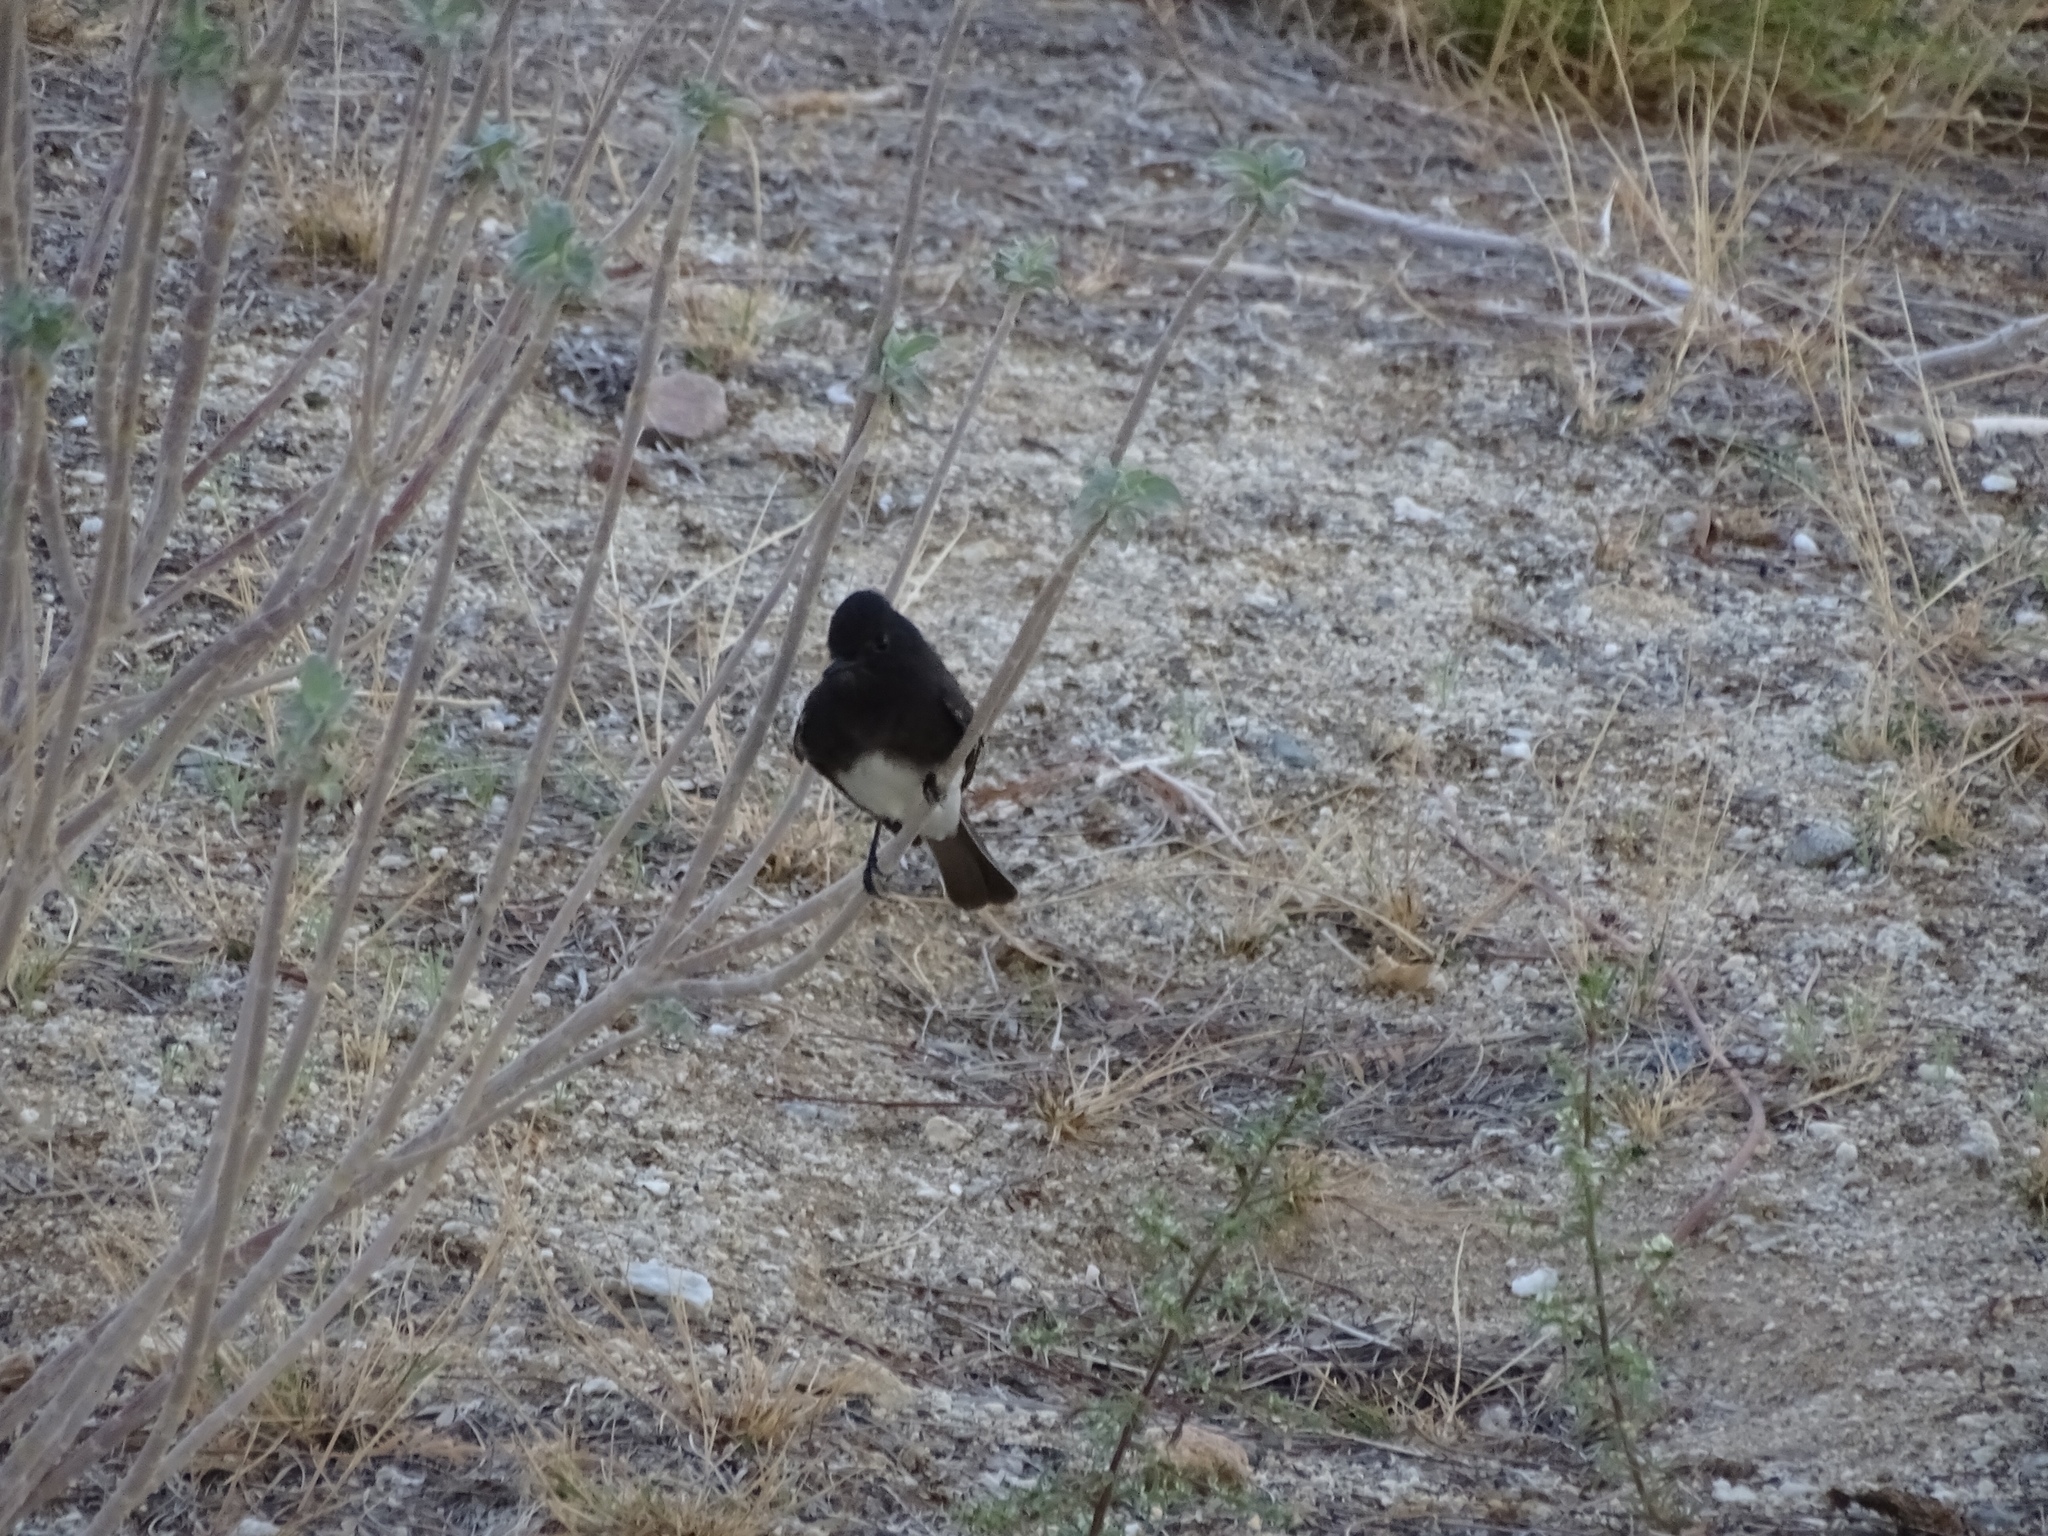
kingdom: Animalia
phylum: Chordata
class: Aves
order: Passeriformes
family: Tyrannidae
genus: Sayornis
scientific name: Sayornis nigricans
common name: Black phoebe
